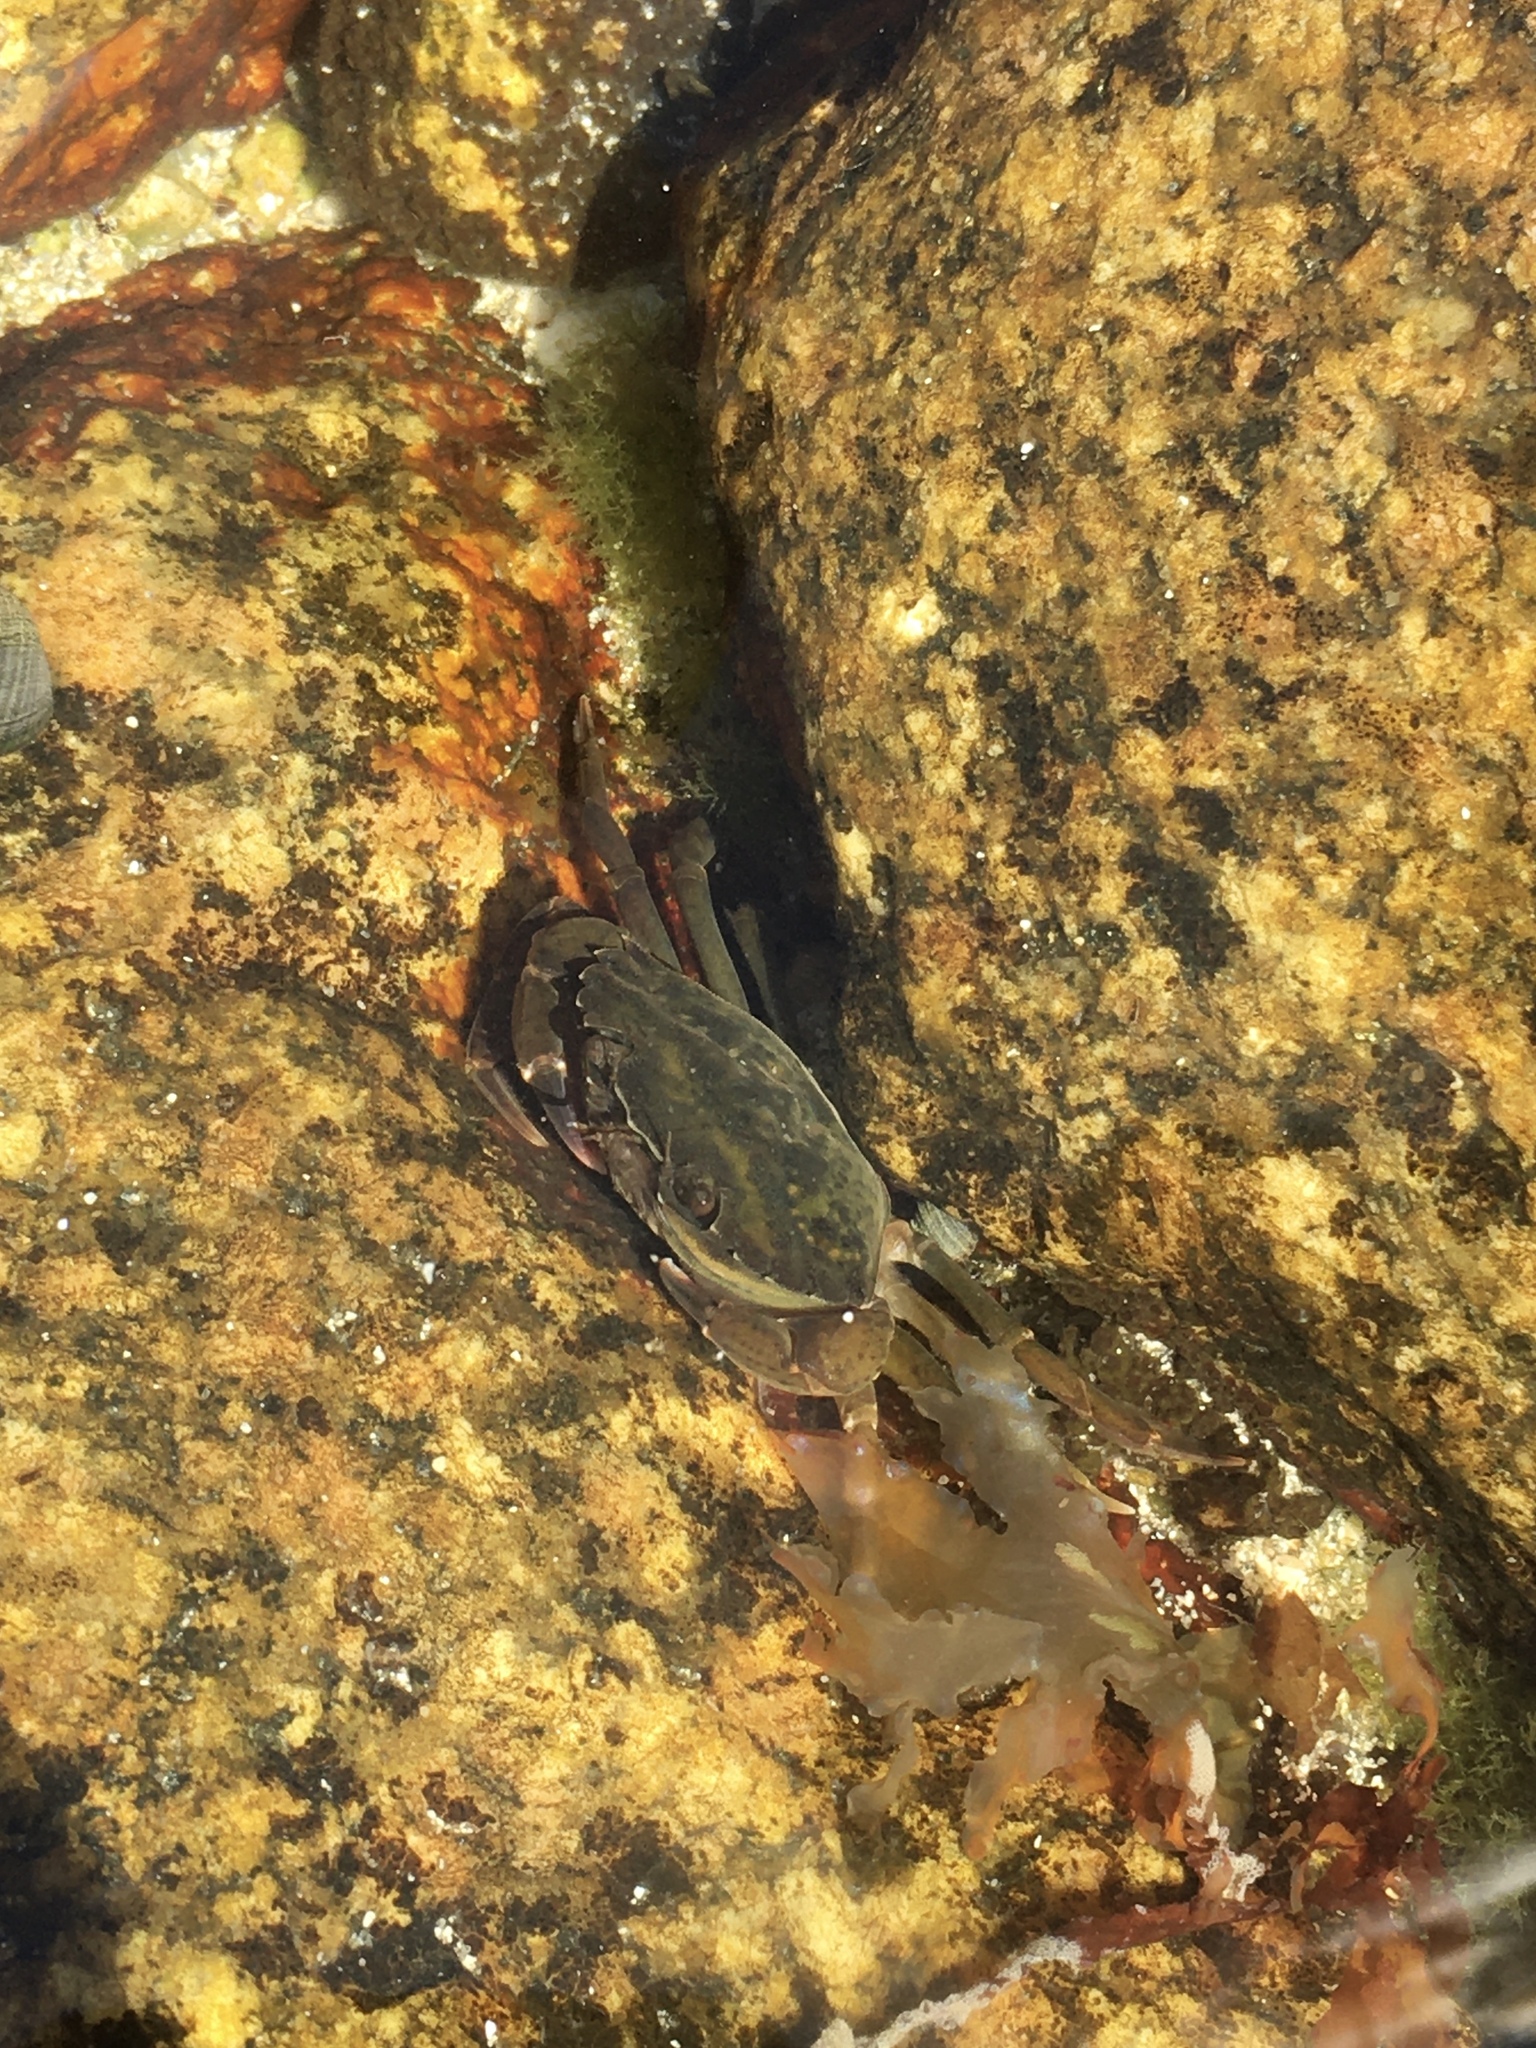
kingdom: Animalia
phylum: Arthropoda
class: Malacostraca
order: Decapoda
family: Carcinidae
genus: Carcinus
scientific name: Carcinus maenas
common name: European green crab
